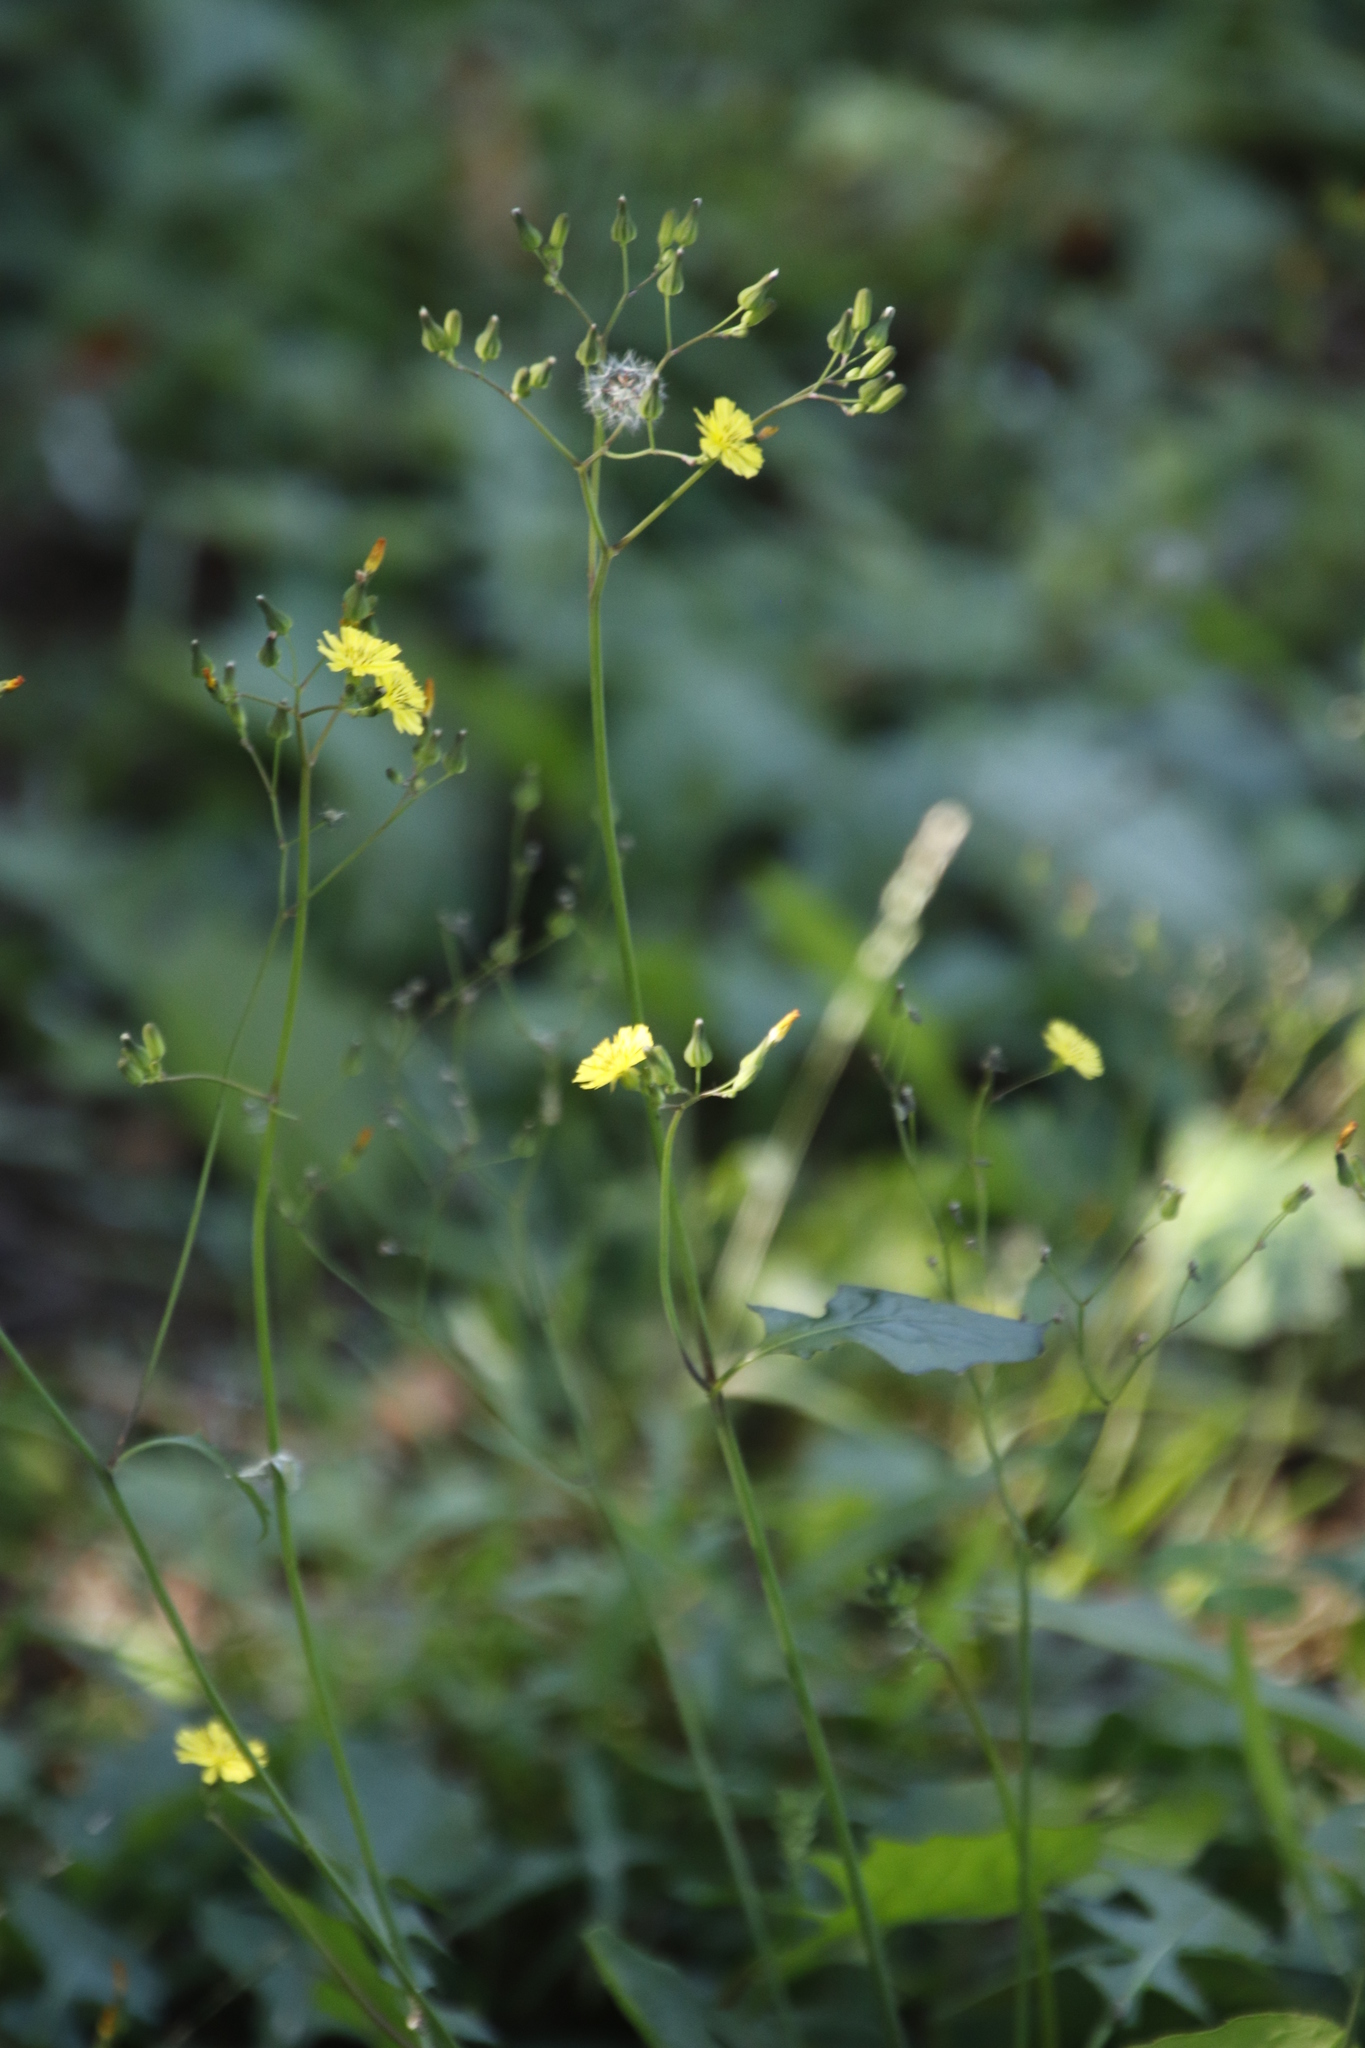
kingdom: Plantae
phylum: Tracheophyta
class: Magnoliopsida
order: Asterales
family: Asteraceae
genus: Youngia
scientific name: Youngia japonica
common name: Oriental false hawksbeard
